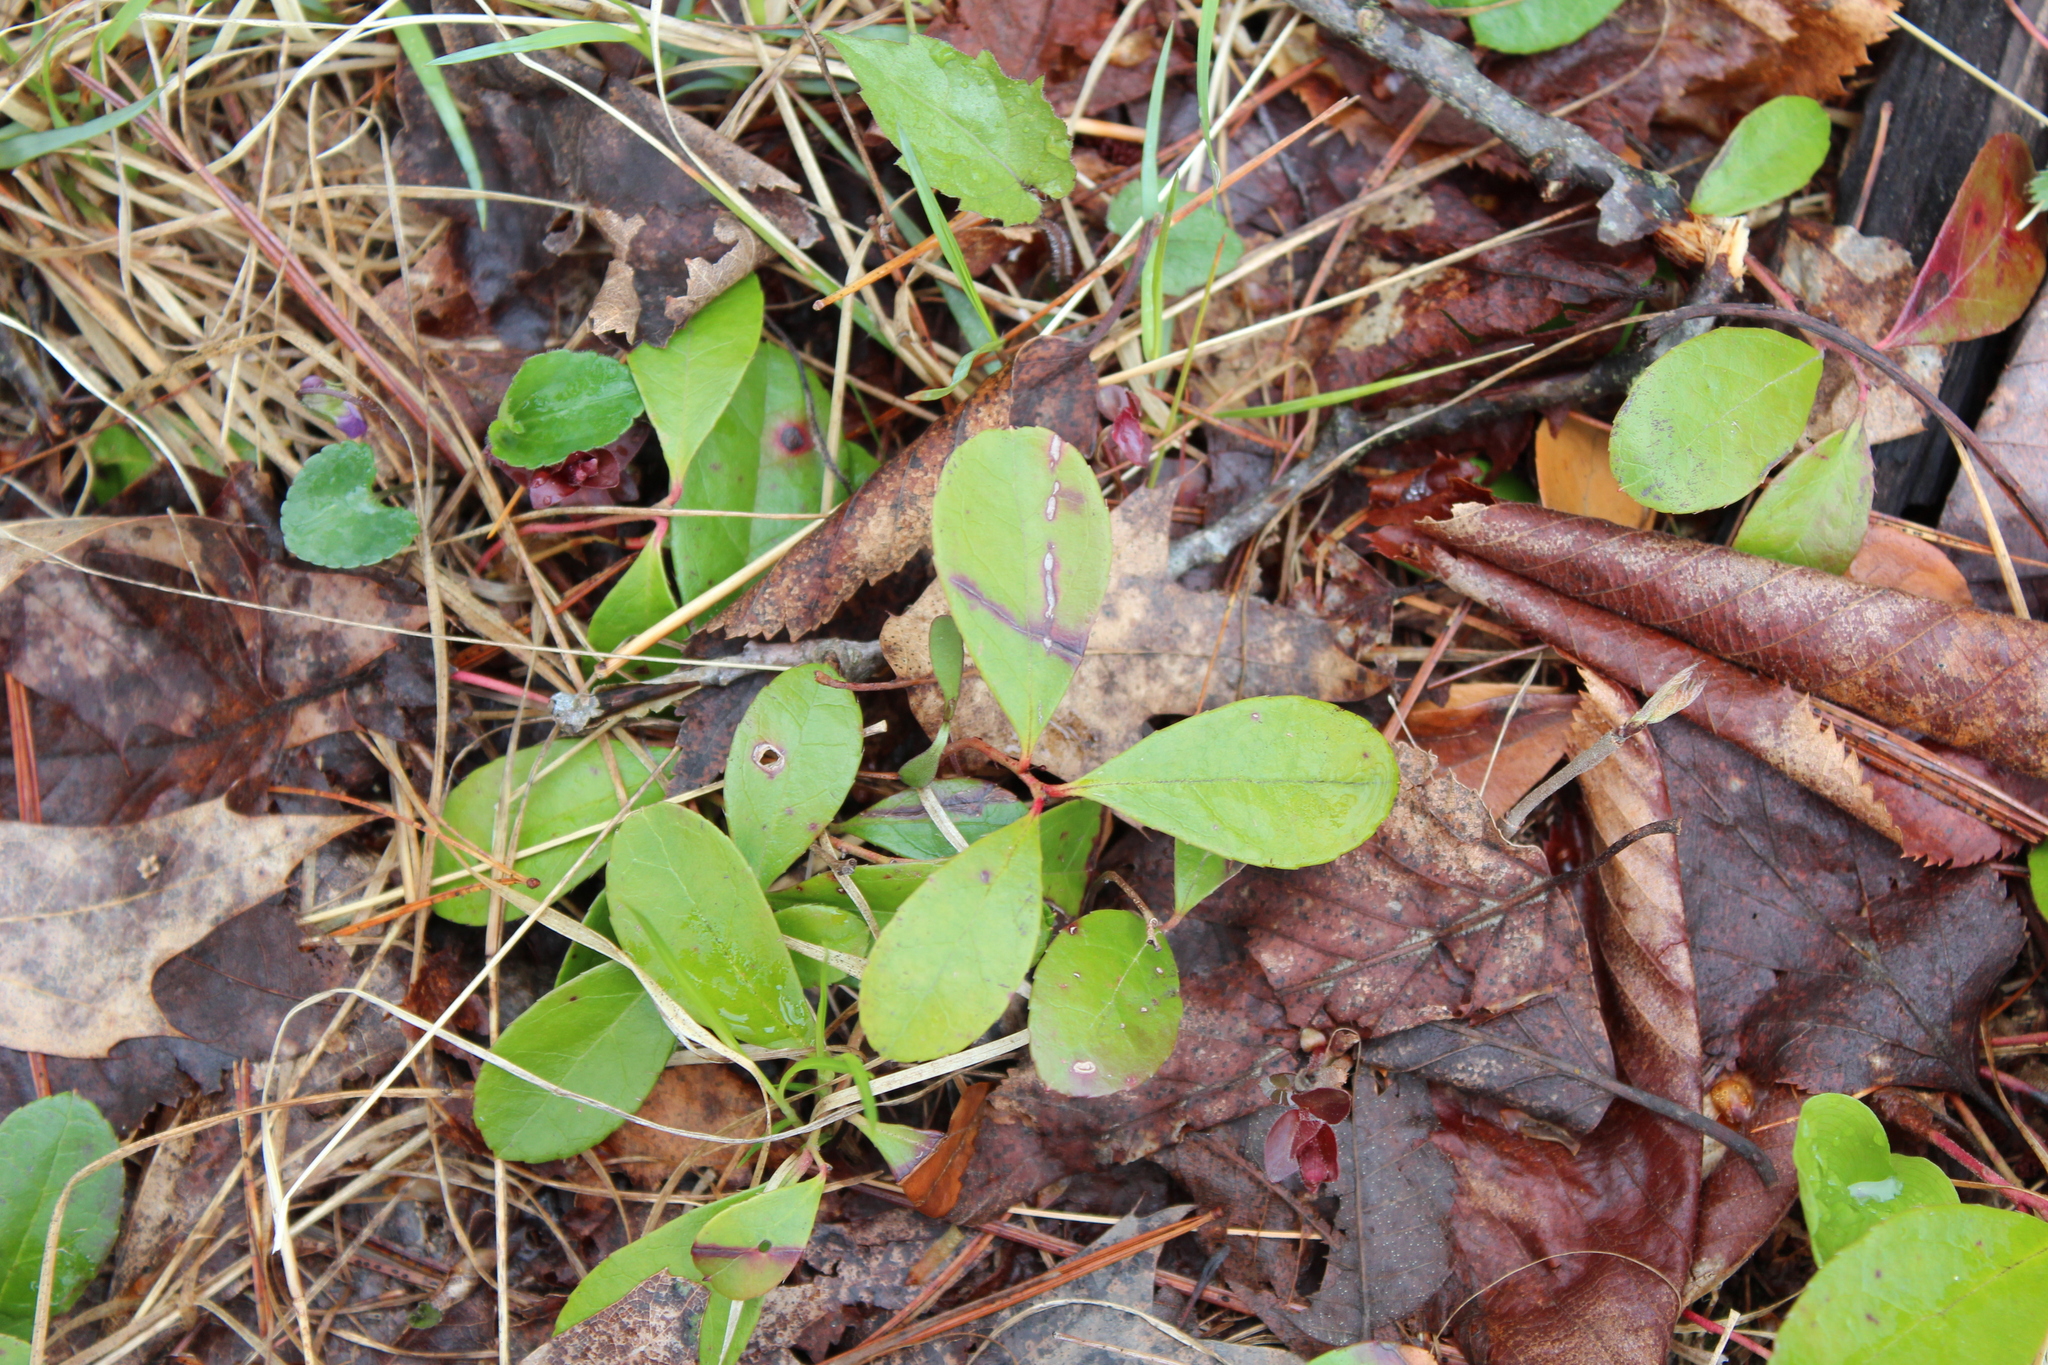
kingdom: Plantae
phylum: Tracheophyta
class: Magnoliopsida
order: Ericales
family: Ericaceae
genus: Gaultheria
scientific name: Gaultheria procumbens
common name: Checkerberry
